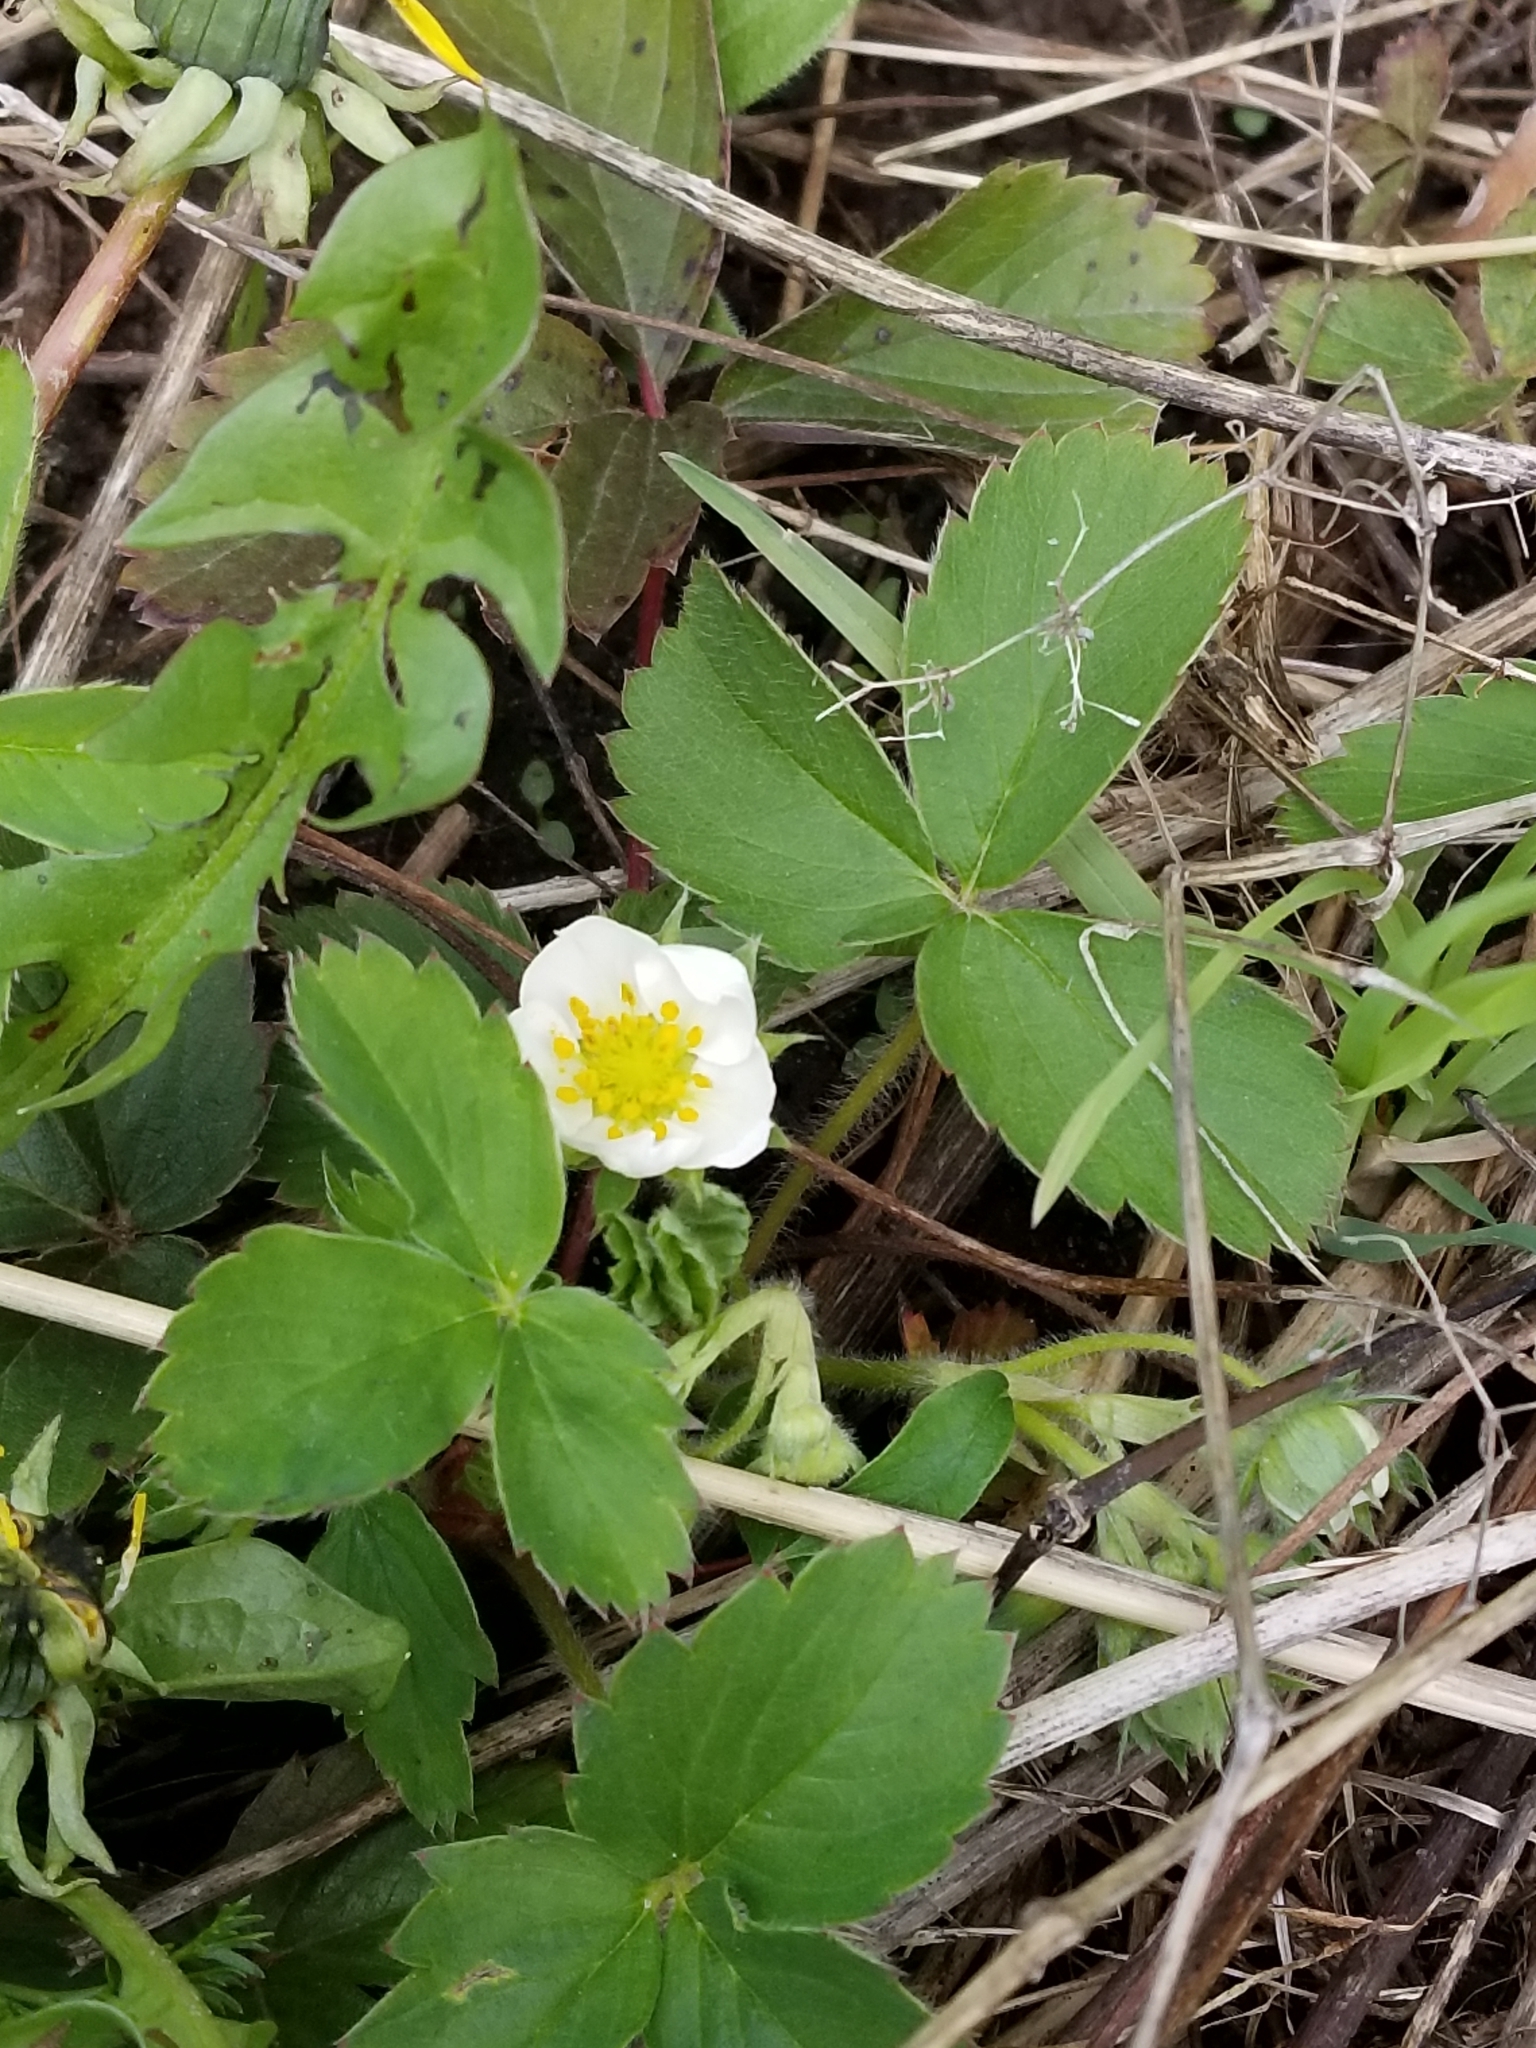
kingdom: Plantae
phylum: Tracheophyta
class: Magnoliopsida
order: Rosales
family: Rosaceae
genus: Fragaria
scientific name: Fragaria virginiana
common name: Thickleaved wild strawberry
